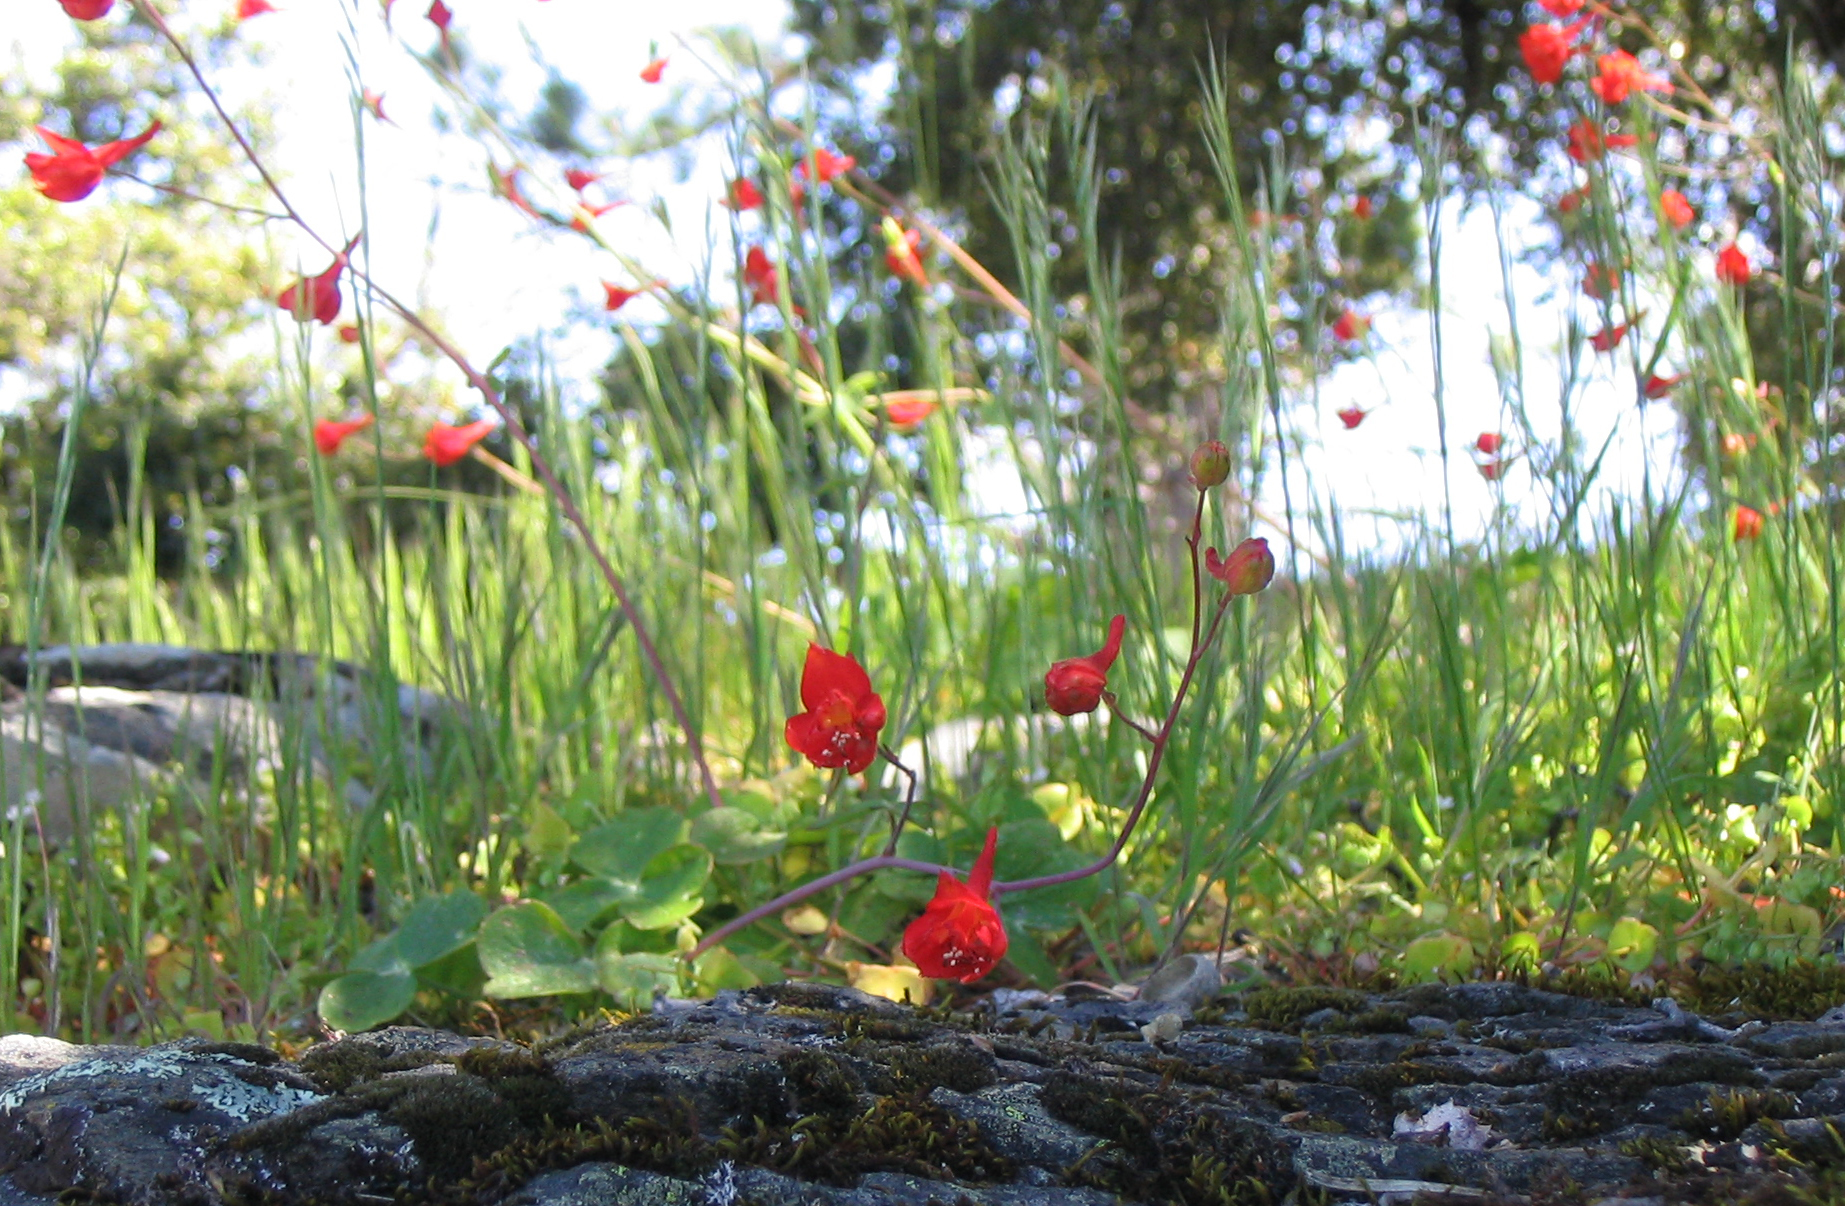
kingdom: Plantae
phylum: Tracheophyta
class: Magnoliopsida
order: Ranunculales
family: Ranunculaceae
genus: Delphinium
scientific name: Delphinium nudicaule
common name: Red larkspur
